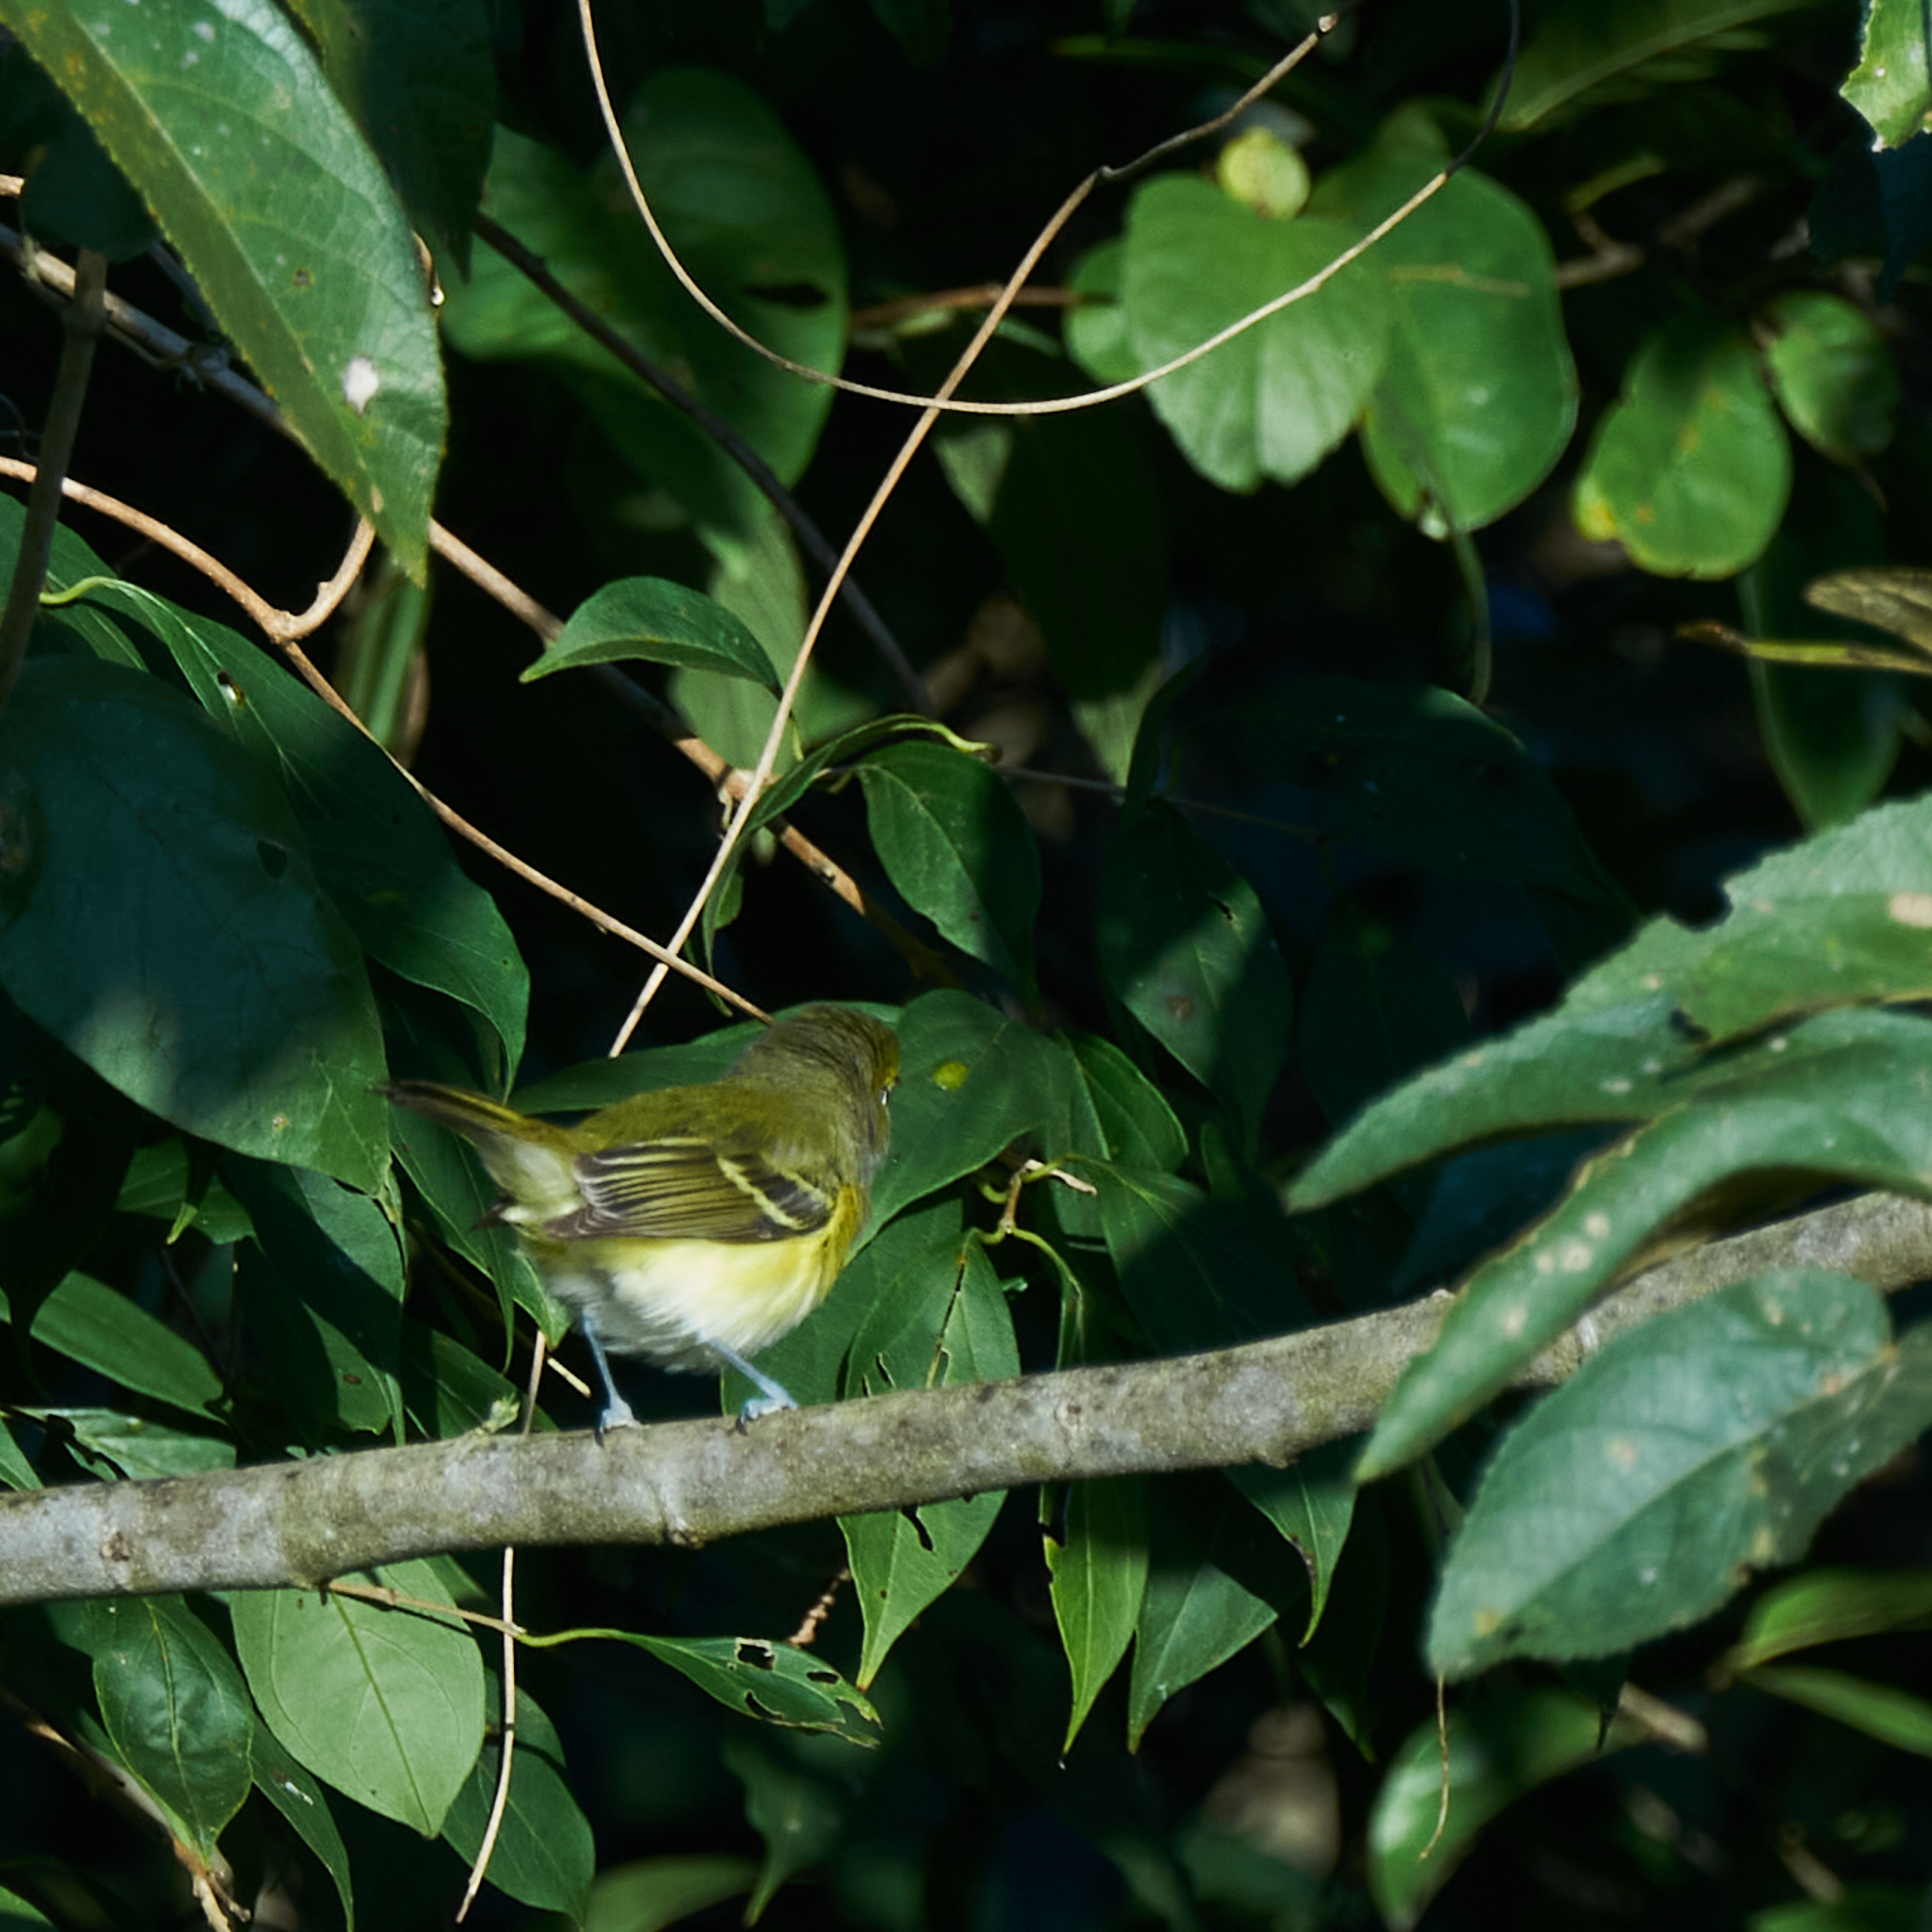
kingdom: Animalia
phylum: Chordata
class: Aves
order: Passeriformes
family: Vireonidae
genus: Vireo
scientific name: Vireo griseus
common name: White-eyed vireo
